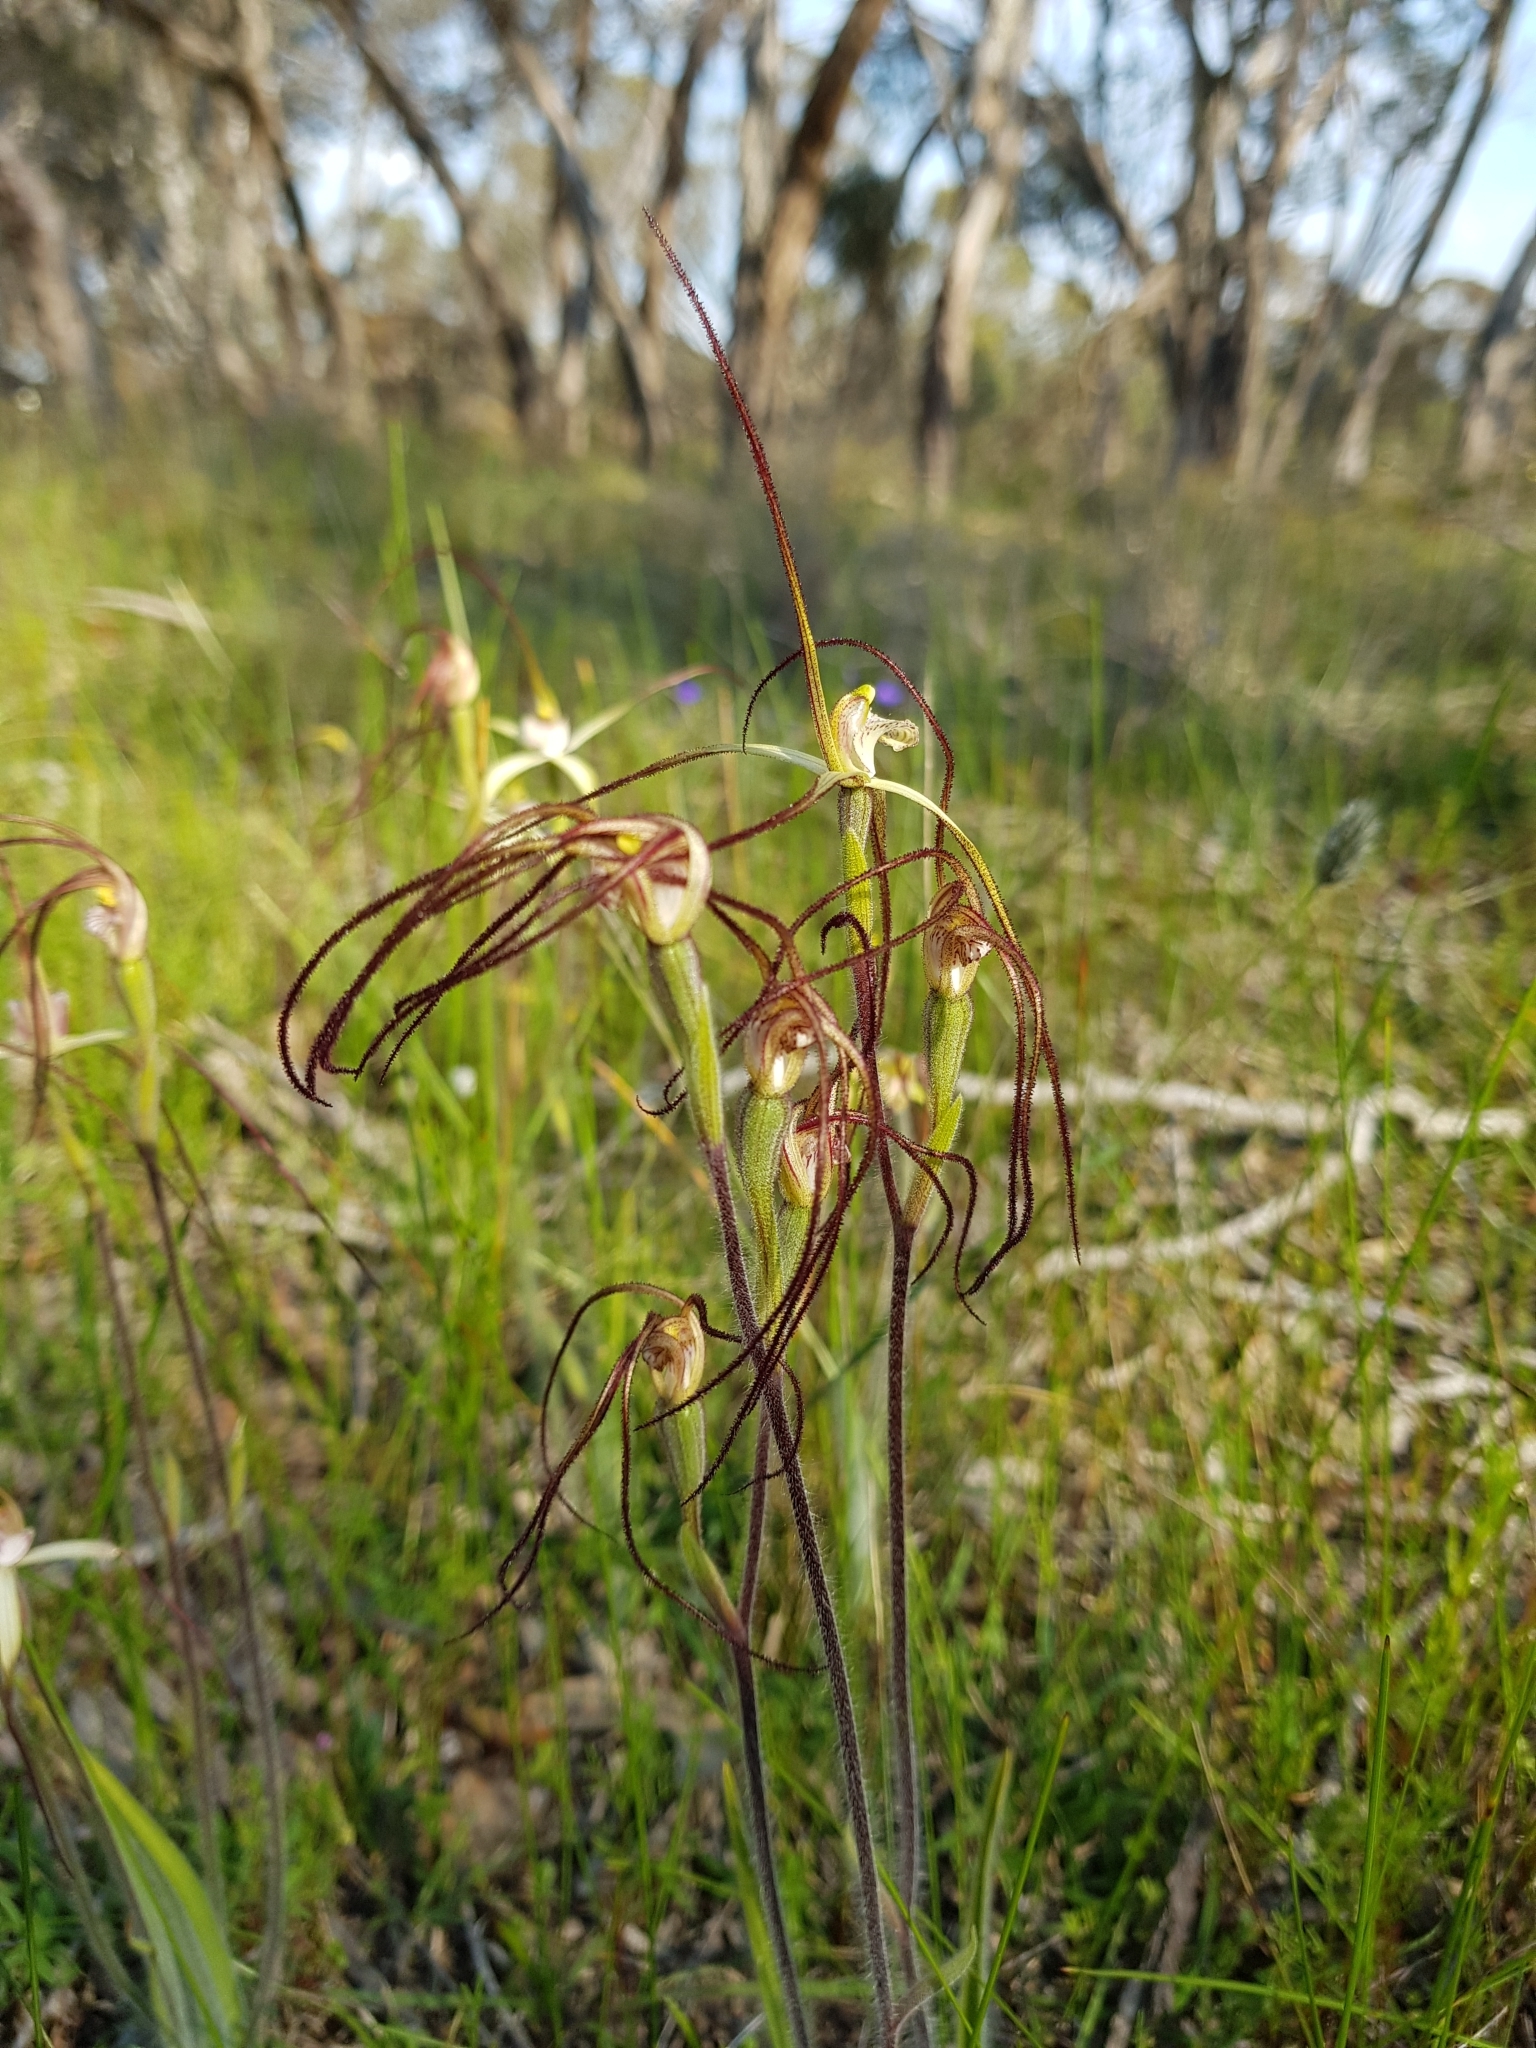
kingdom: Plantae
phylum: Tracheophyta
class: Liliopsida
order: Asparagales
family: Orchidaceae
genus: Caladenia
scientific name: Caladenia straminichila
